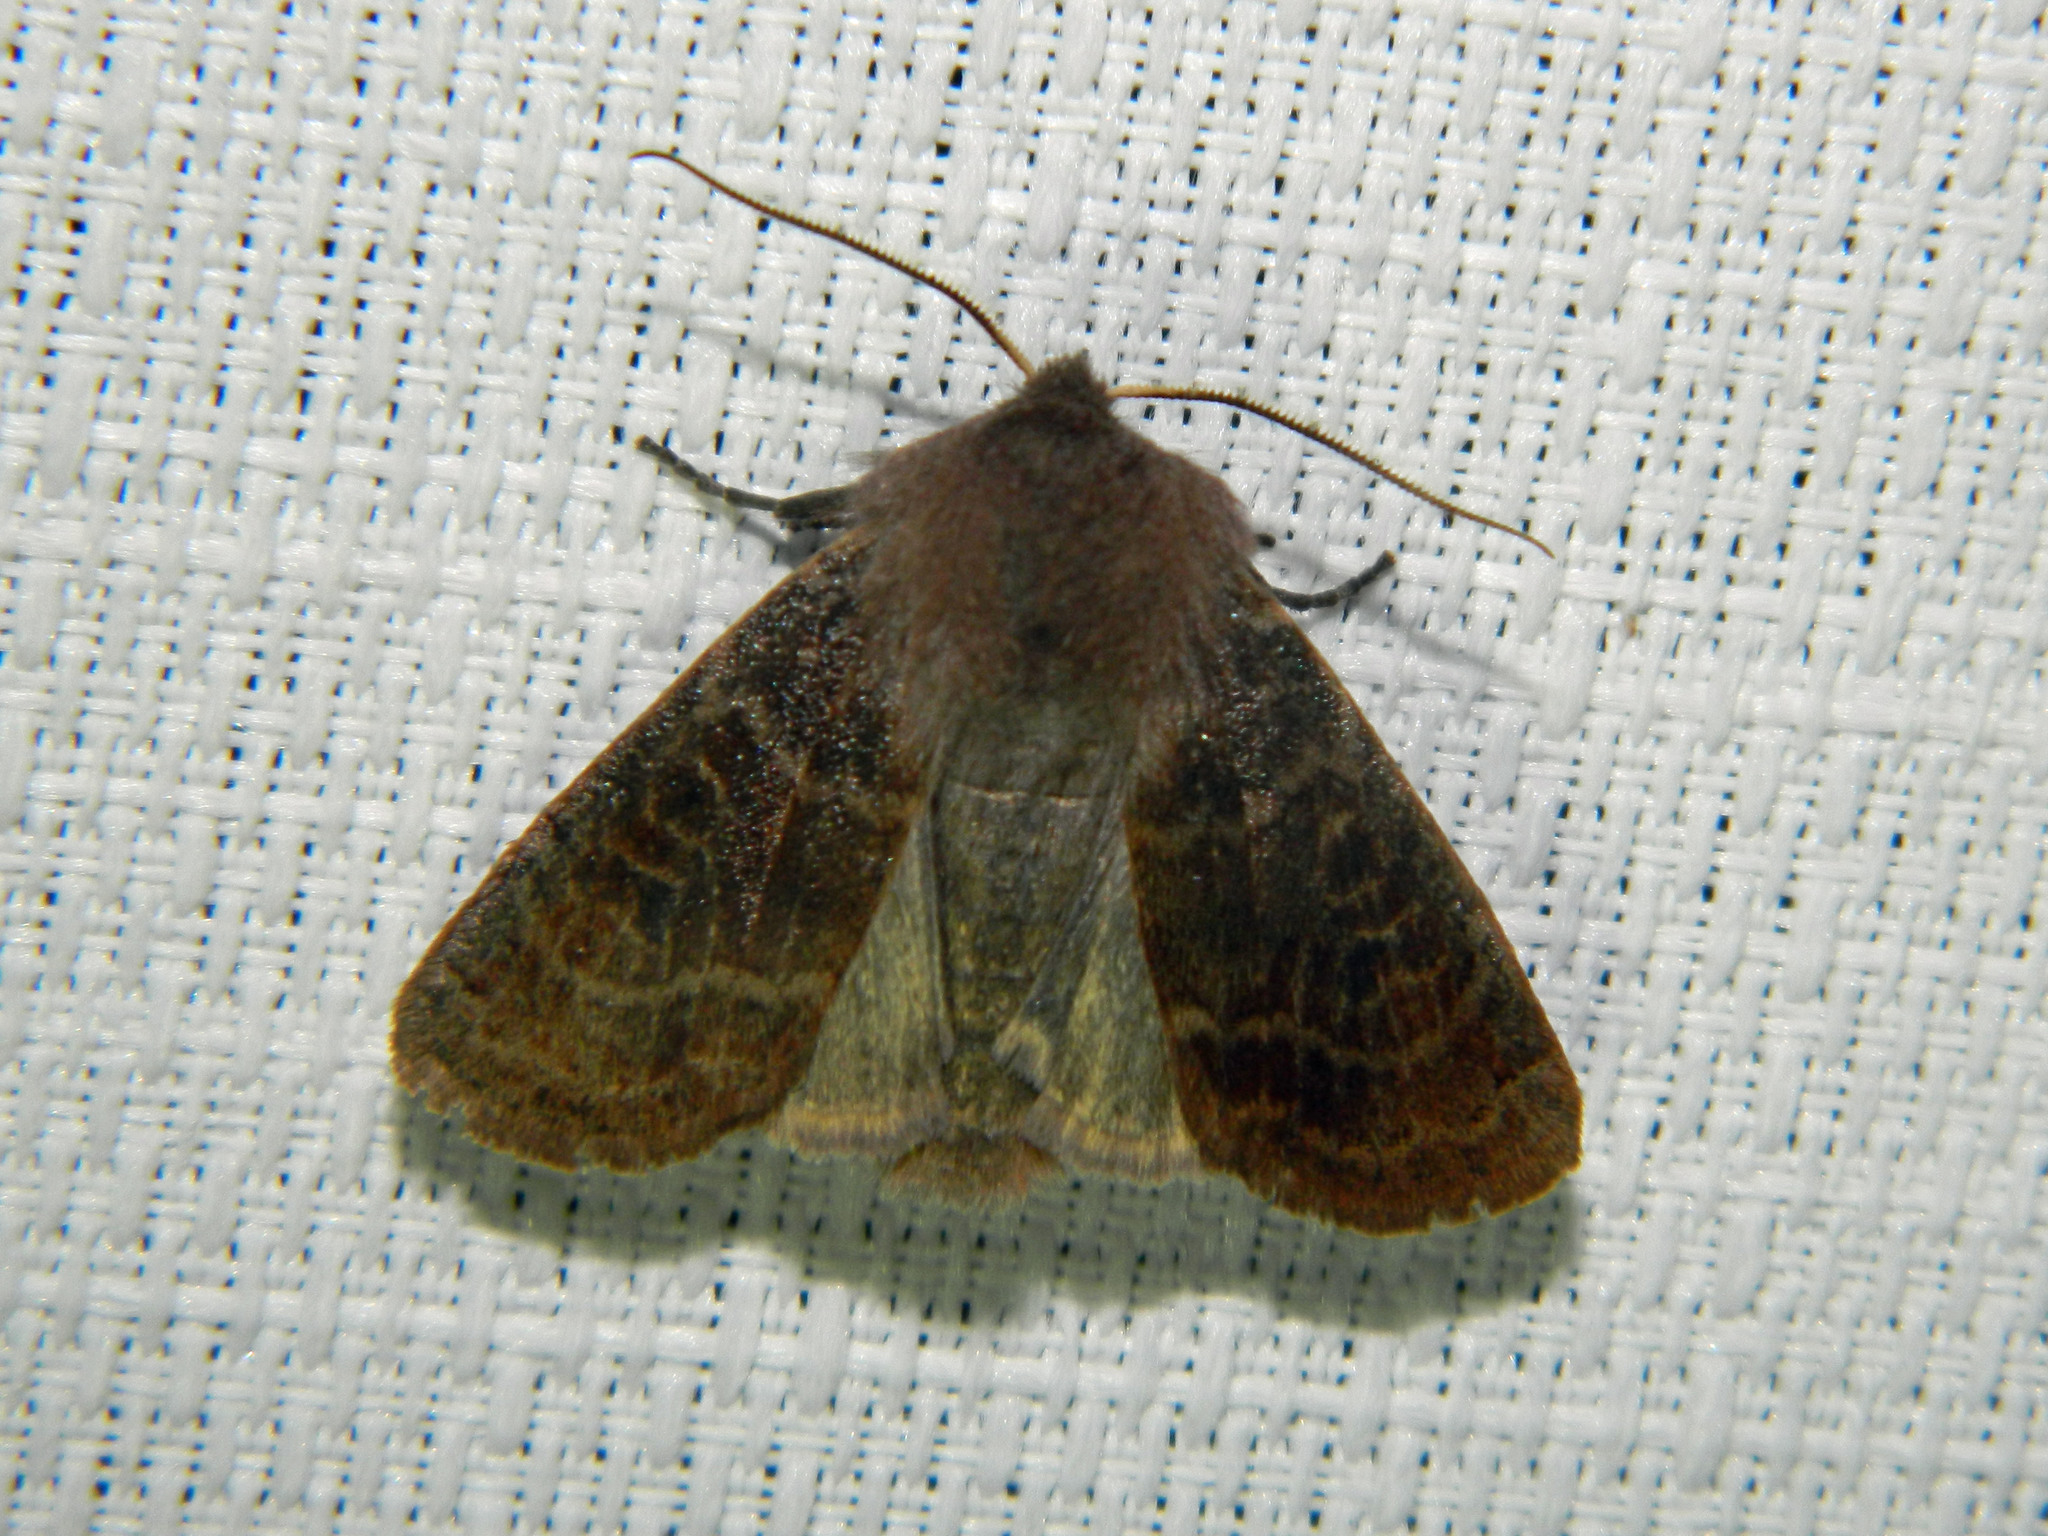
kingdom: Animalia
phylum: Arthropoda
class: Insecta
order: Lepidoptera
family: Noctuidae
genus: Homoglaea
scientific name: Homoglaea hircina
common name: Goat sallow
